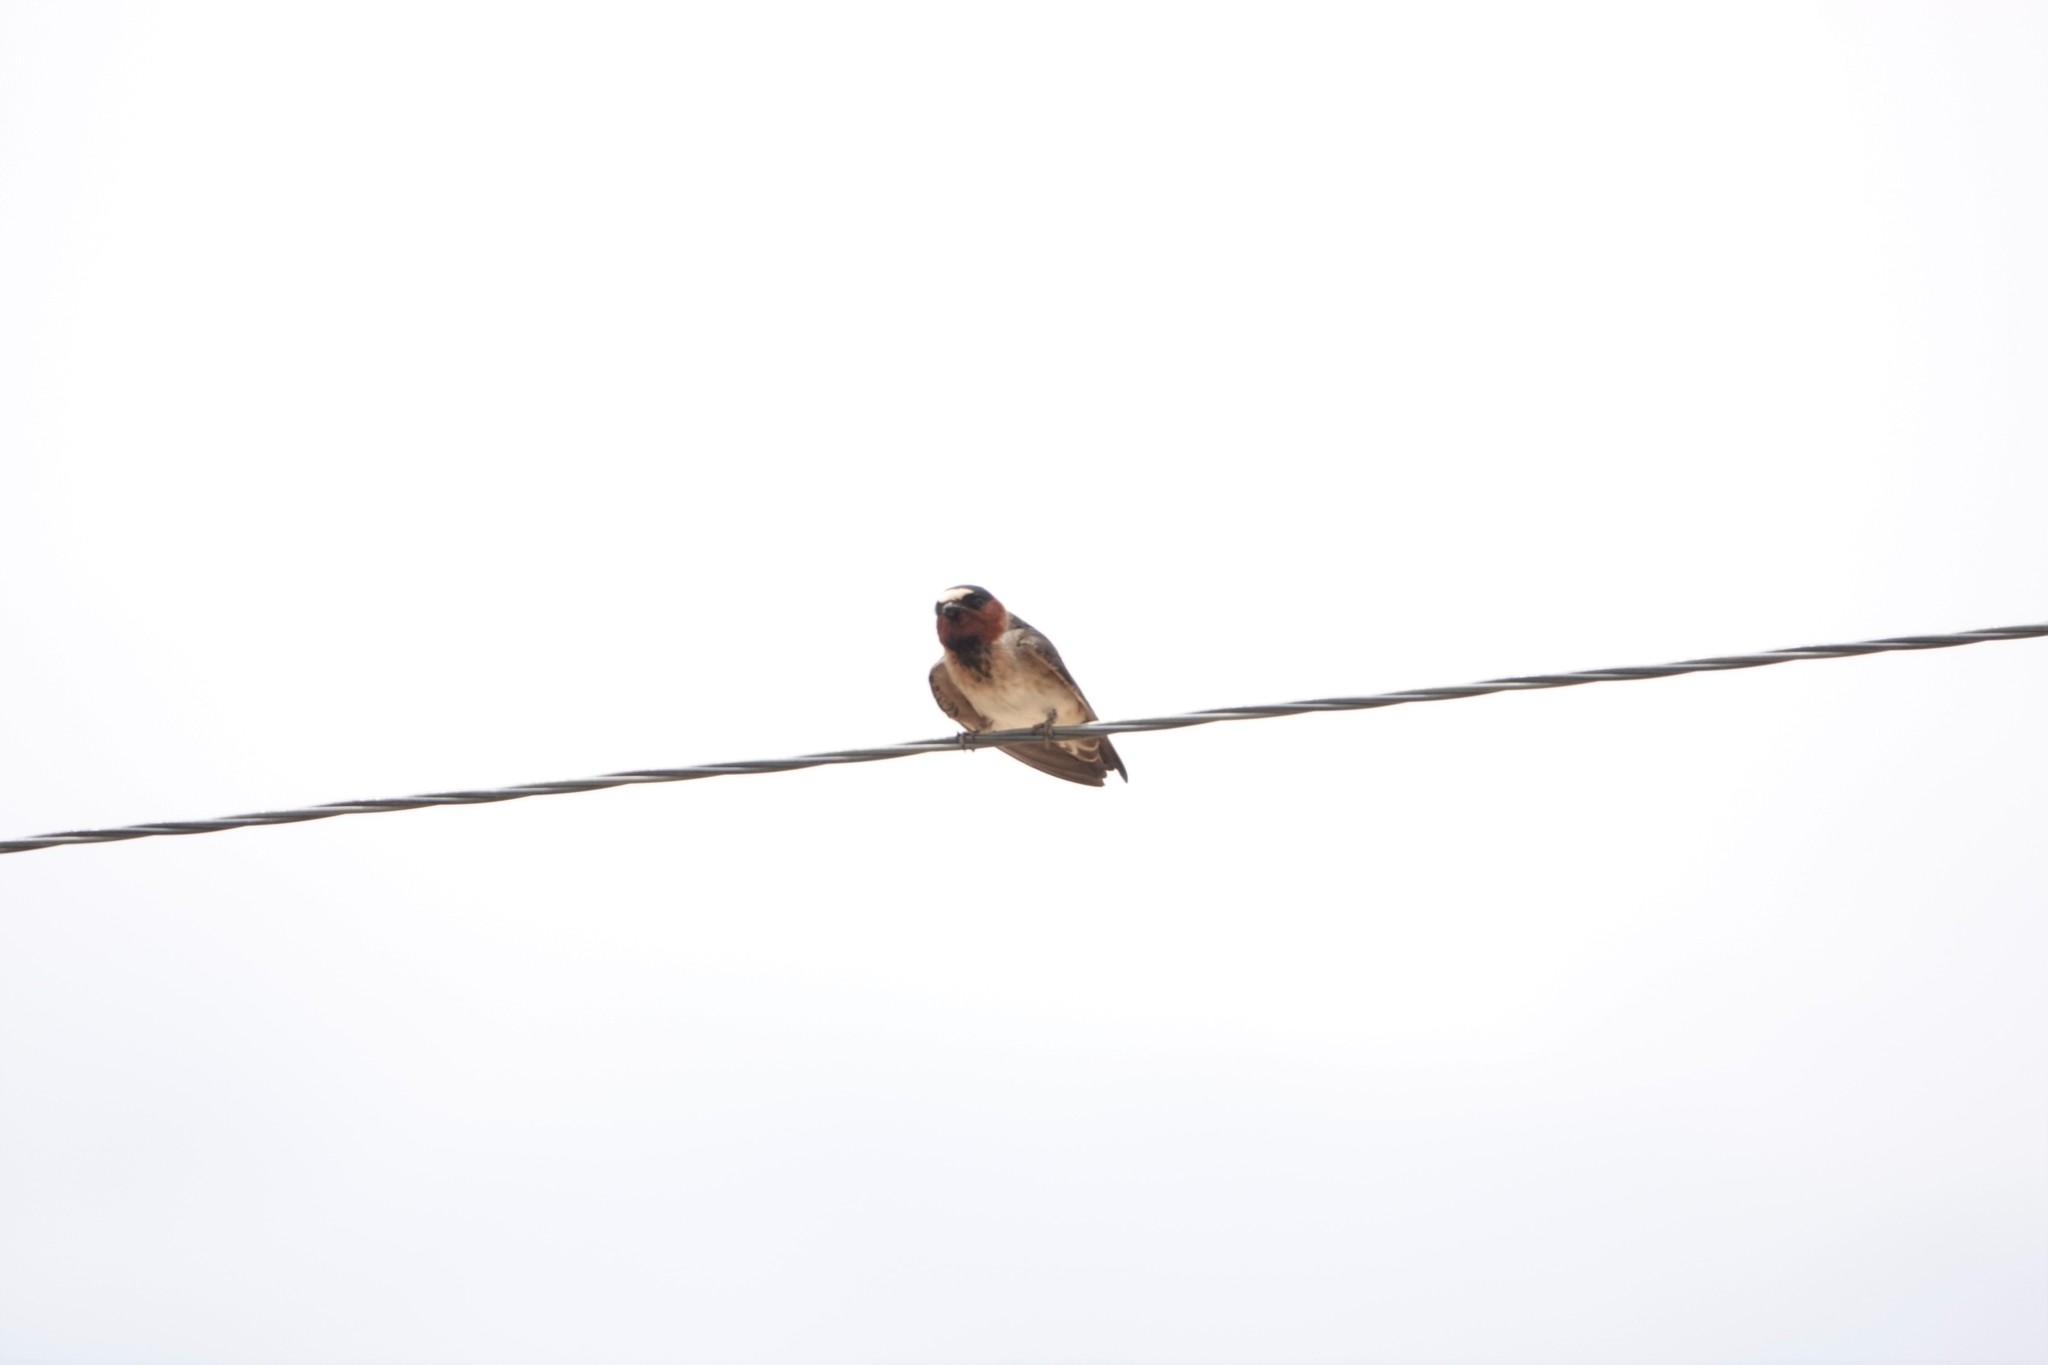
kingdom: Animalia
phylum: Chordata
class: Aves
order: Passeriformes
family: Hirundinidae
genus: Petrochelidon
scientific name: Petrochelidon pyrrhonota
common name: American cliff swallow
